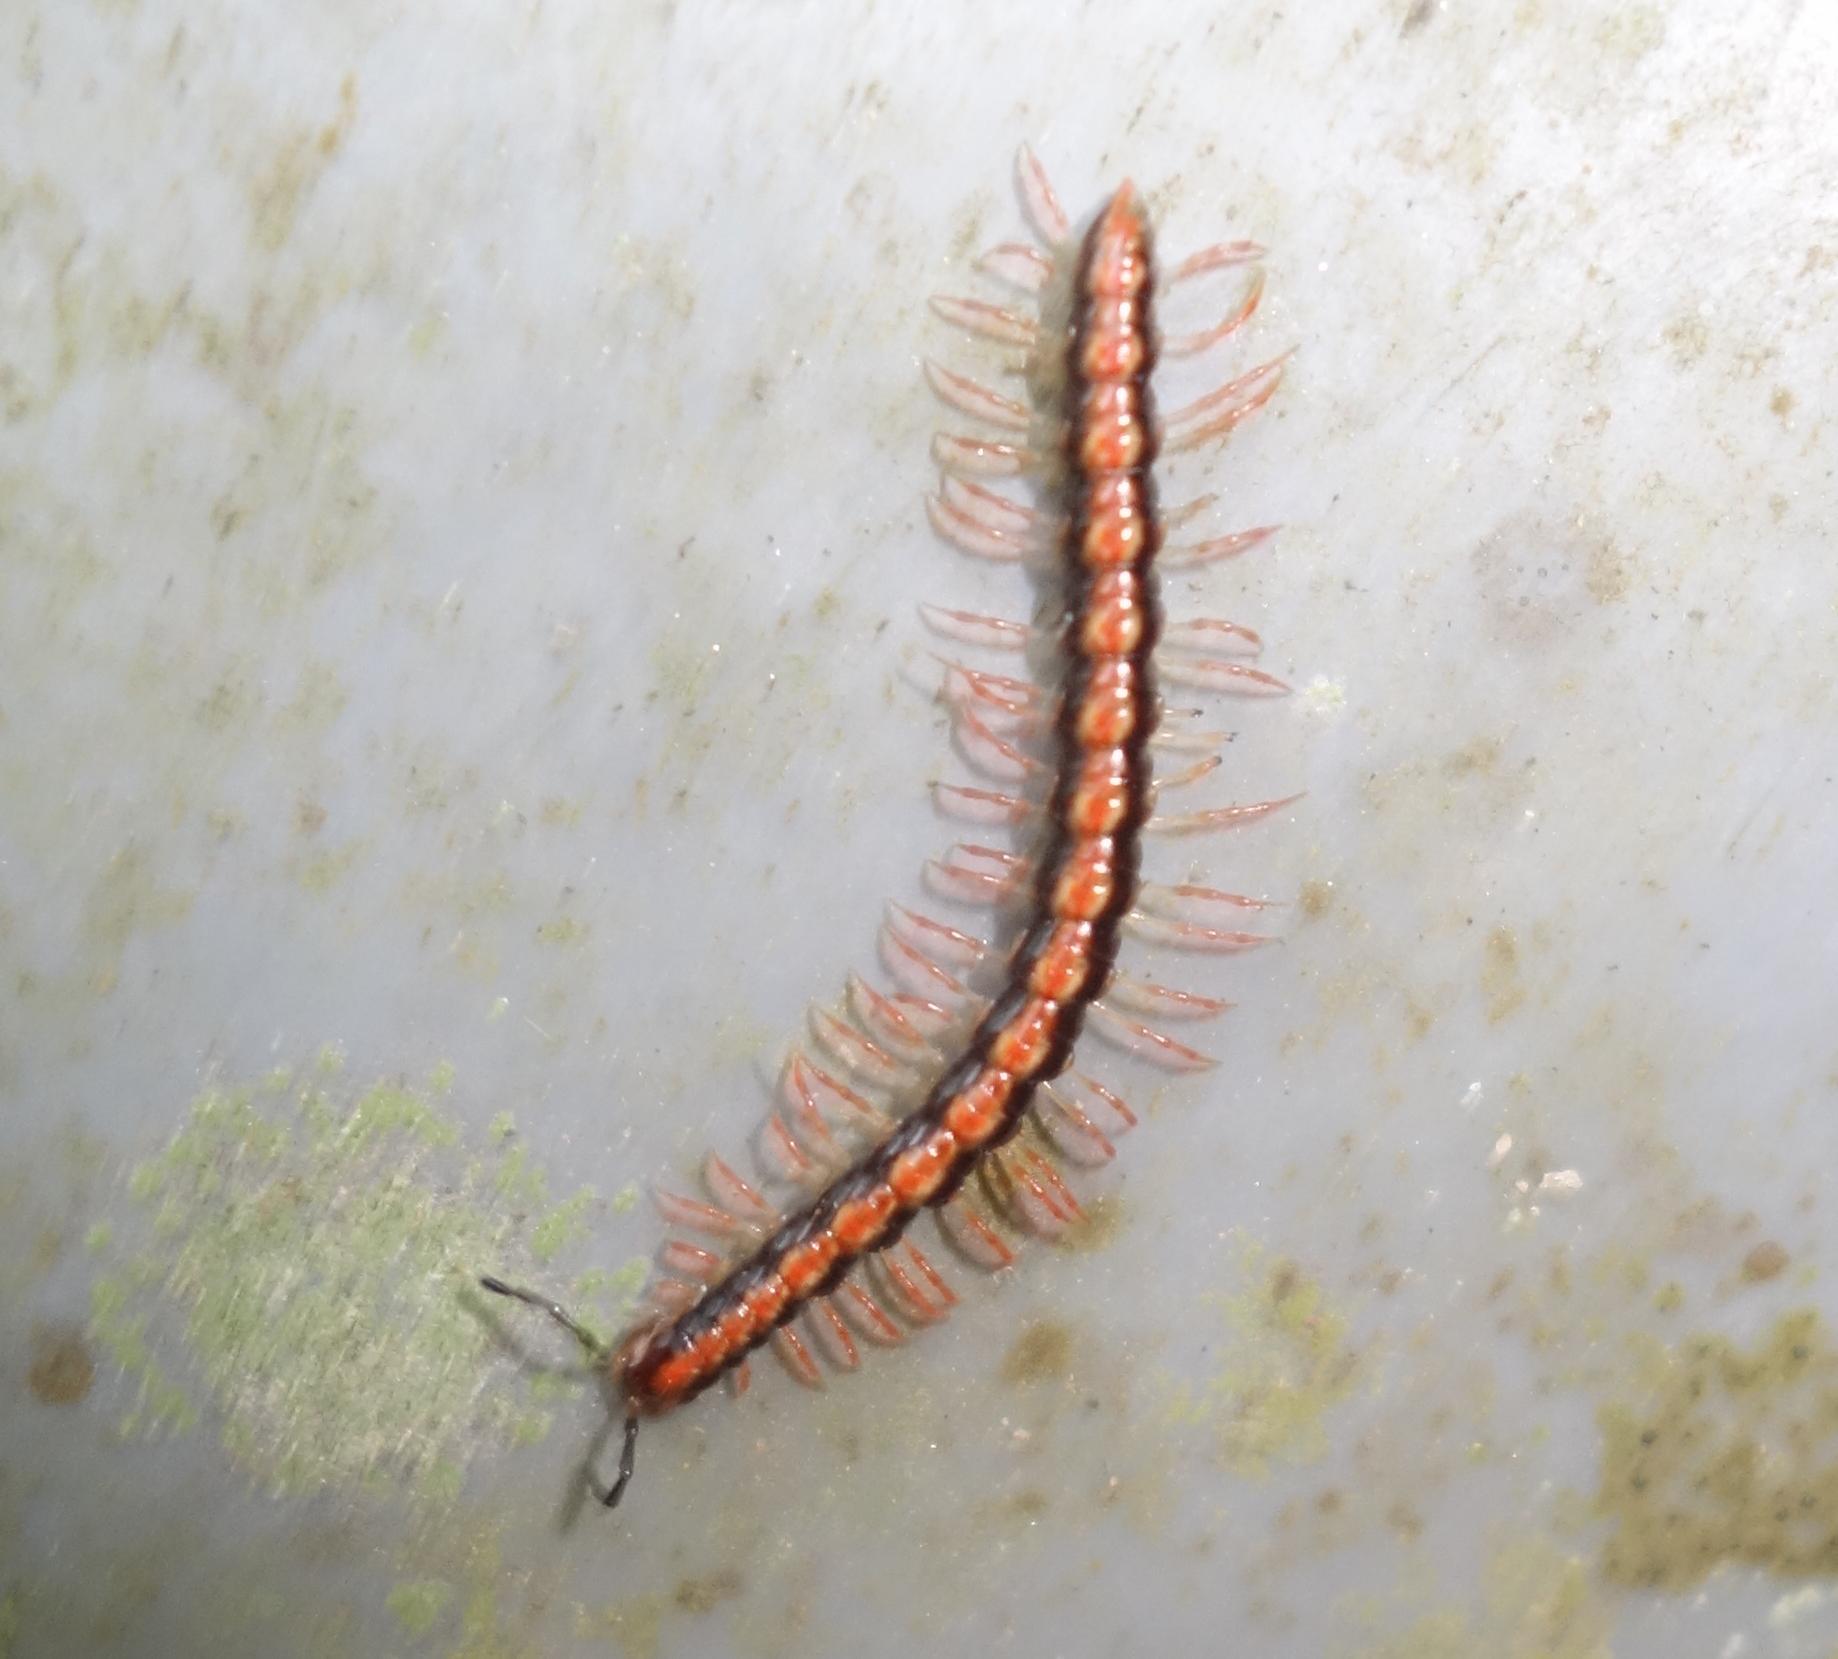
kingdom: Animalia
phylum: Arthropoda
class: Diplopoda
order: Polydesmida
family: Paradoxosomatidae
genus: Helicorthomorpha
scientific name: Helicorthomorpha holstii
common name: Millipede
